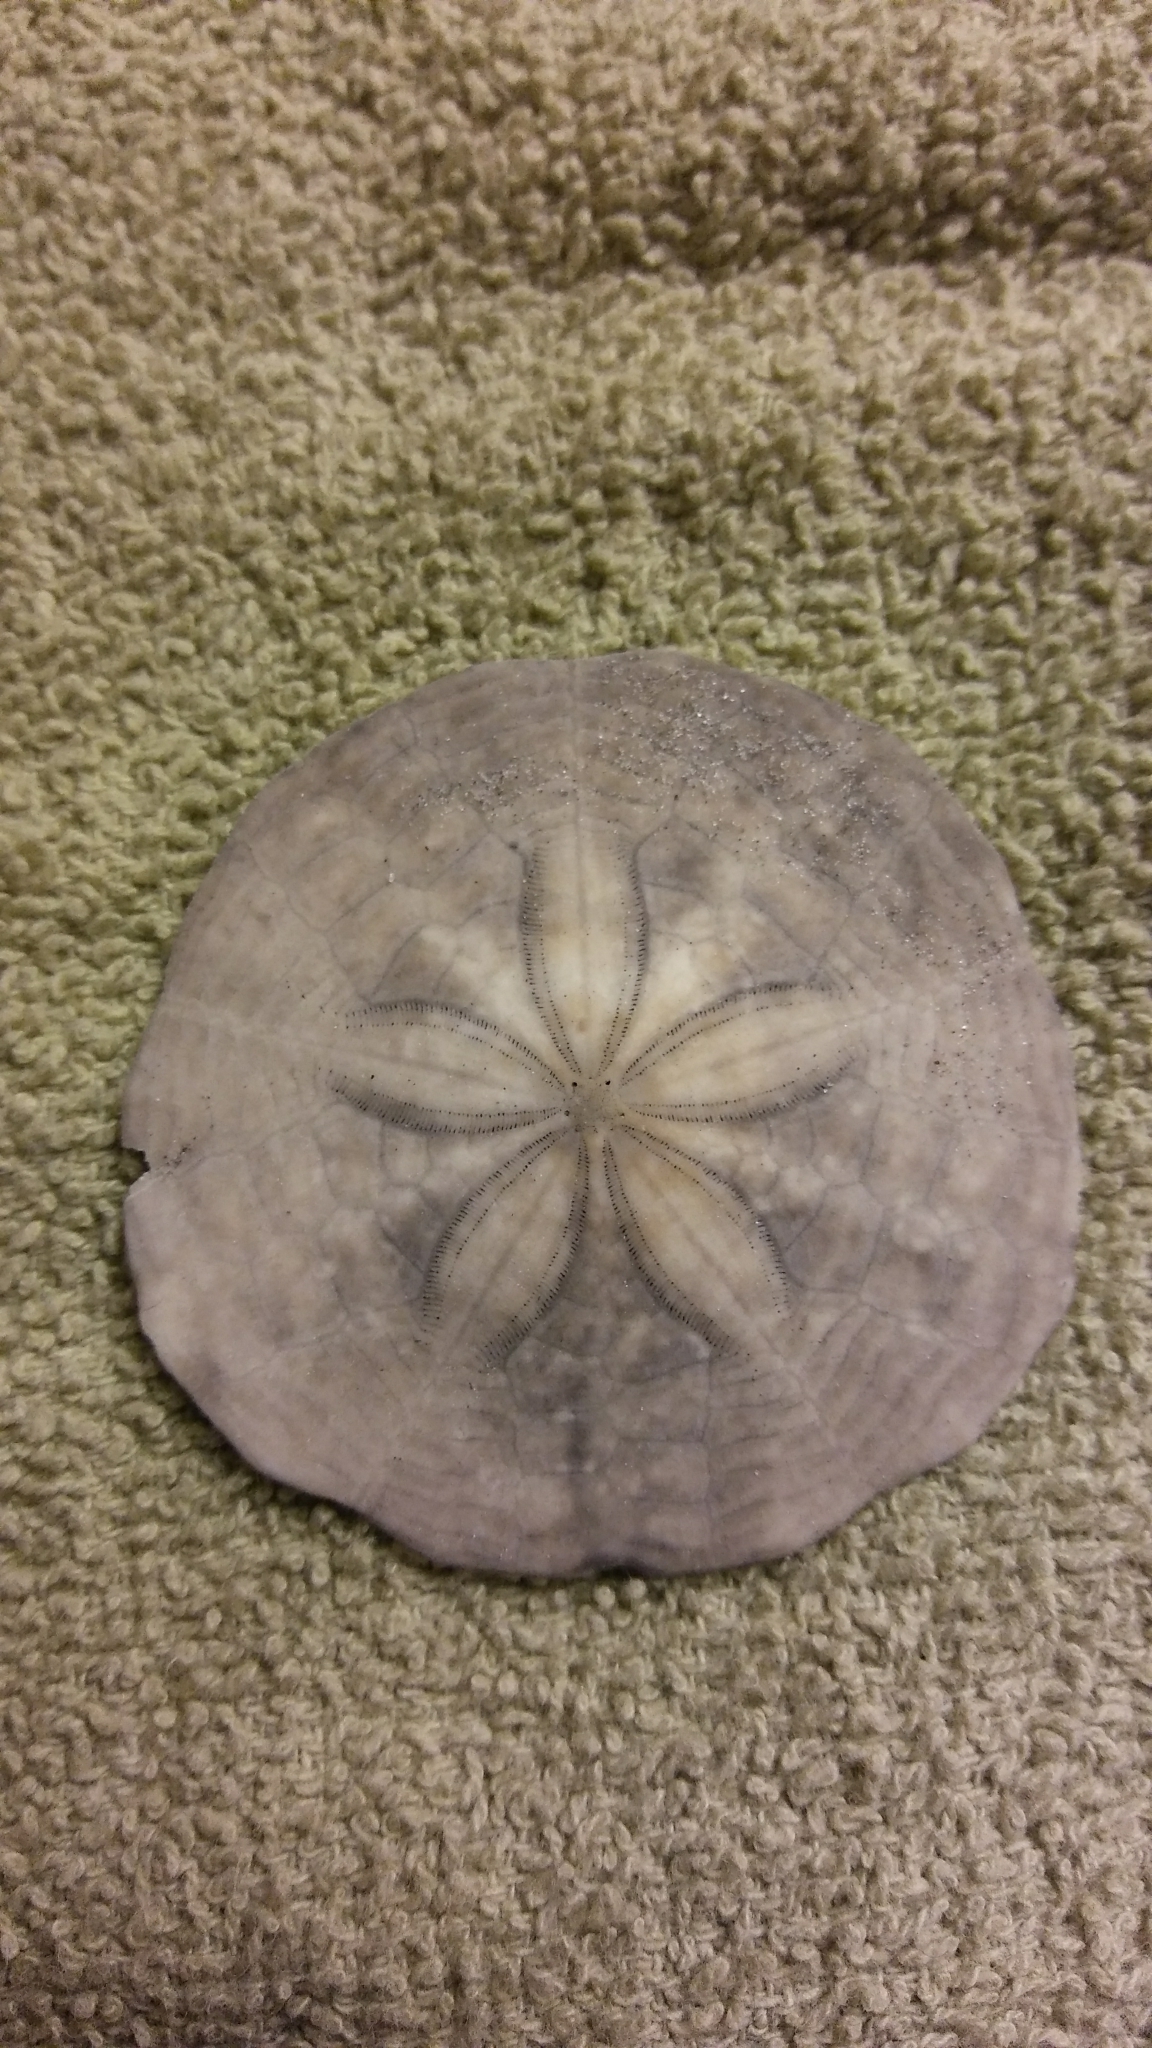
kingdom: Animalia
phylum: Echinodermata
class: Echinoidea
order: Echinolampadacea
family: Echinarachniidae
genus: Echinarachnius
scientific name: Echinarachnius parma
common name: Common sand dollar
